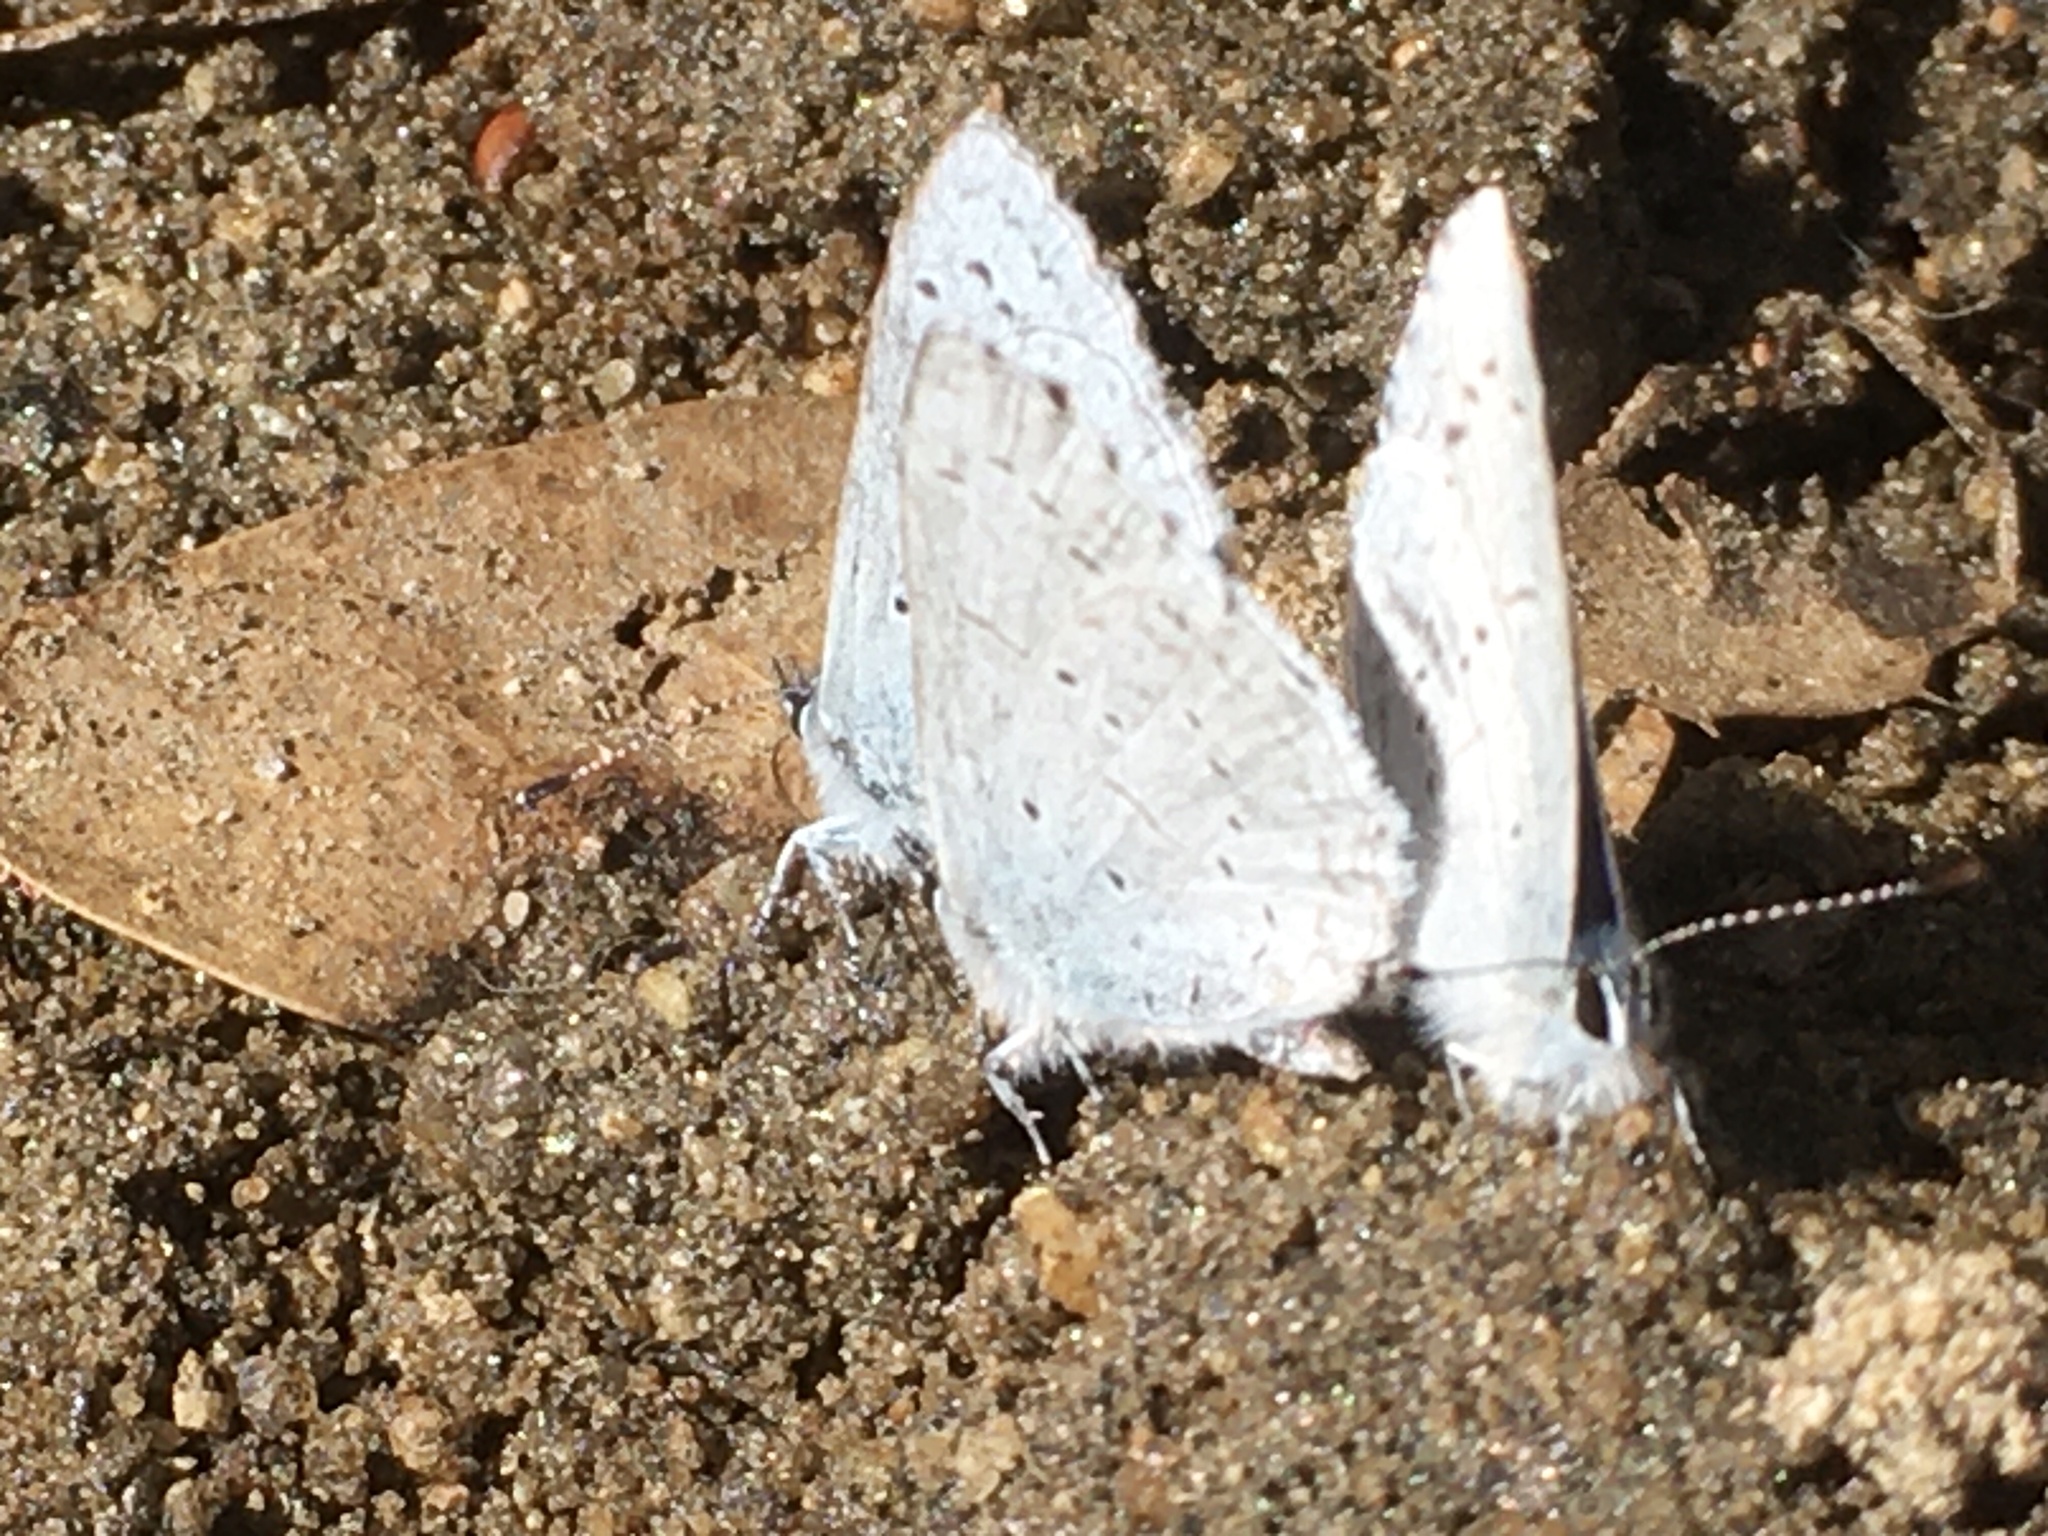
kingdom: Animalia
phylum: Arthropoda
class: Insecta
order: Lepidoptera
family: Lycaenidae
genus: Celastrina
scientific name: Celastrina ladon
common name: Spring azure
